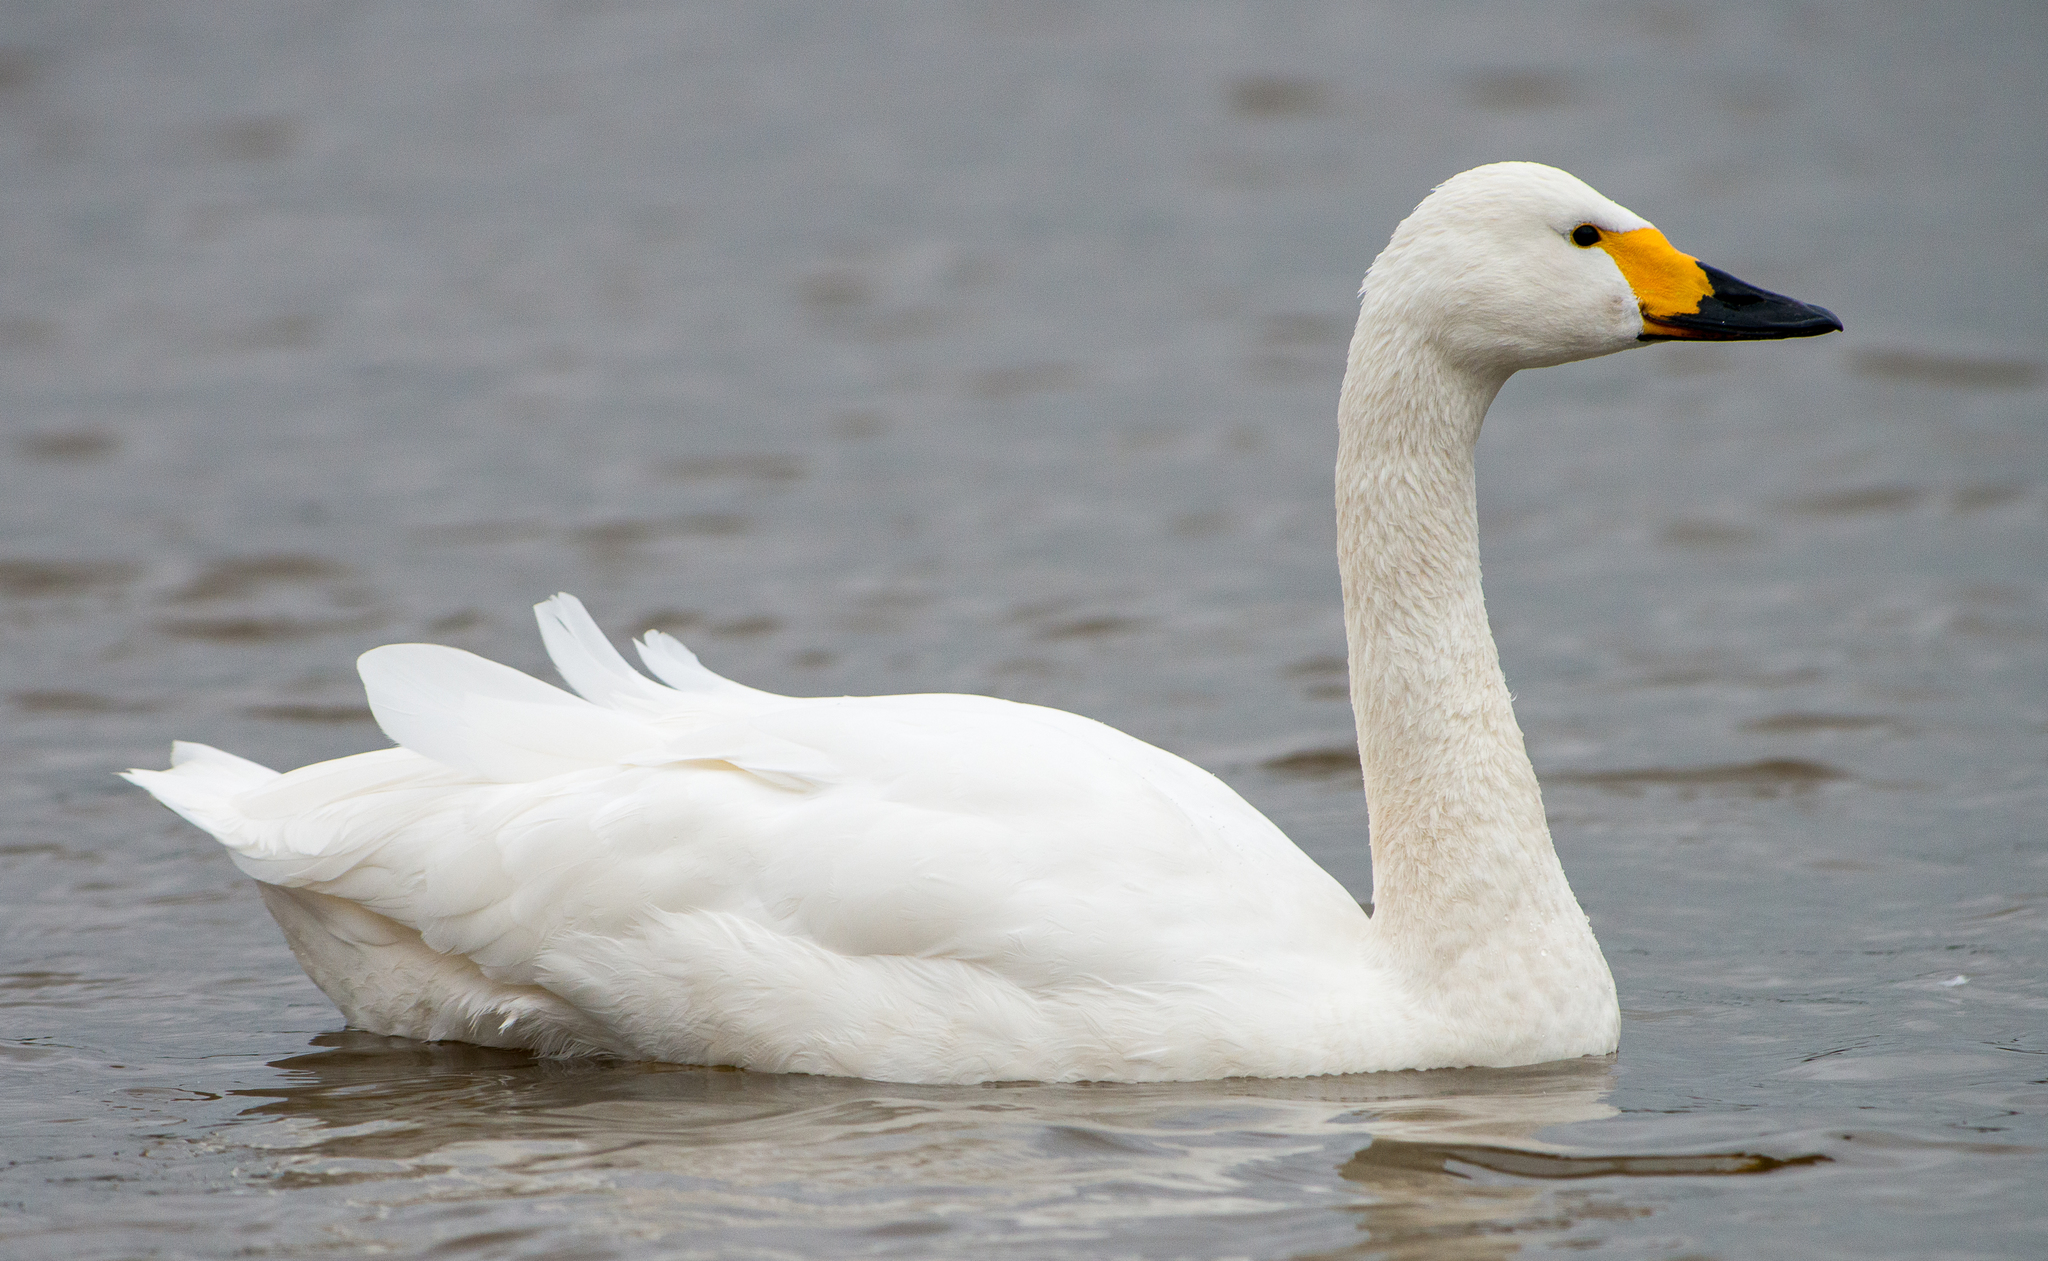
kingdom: Animalia
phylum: Chordata
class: Aves
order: Anseriformes
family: Anatidae
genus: Cygnus
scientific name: Cygnus columbianus
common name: Tundra swan
